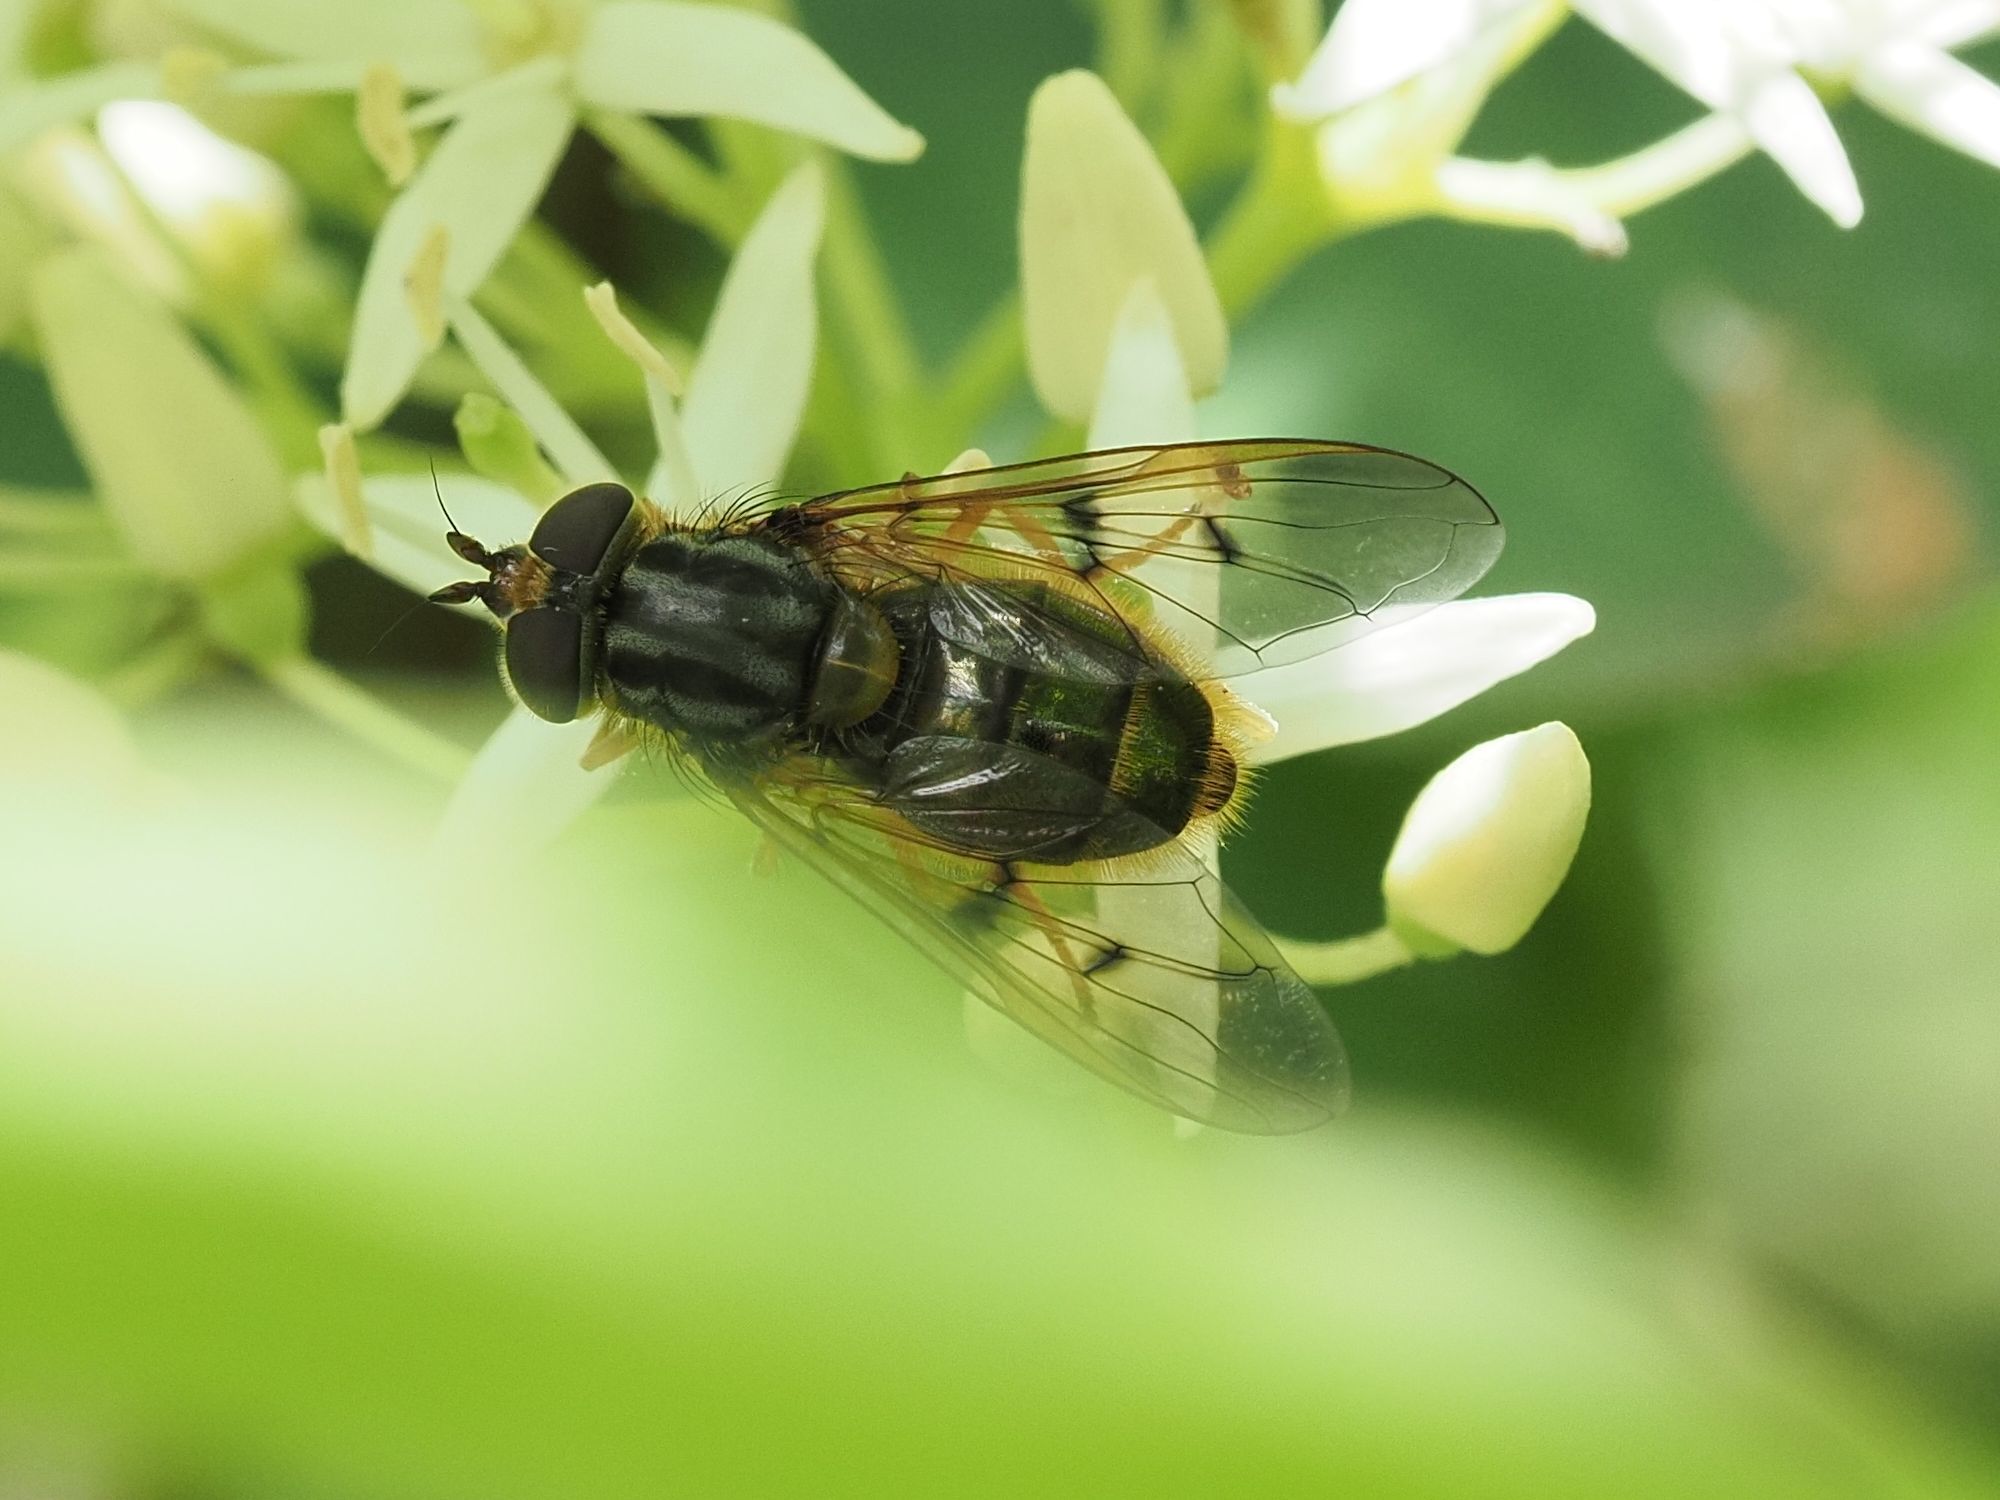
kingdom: Animalia
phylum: Arthropoda
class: Insecta
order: Diptera
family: Syrphidae
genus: Ferdinandea
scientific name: Ferdinandea cuprea
